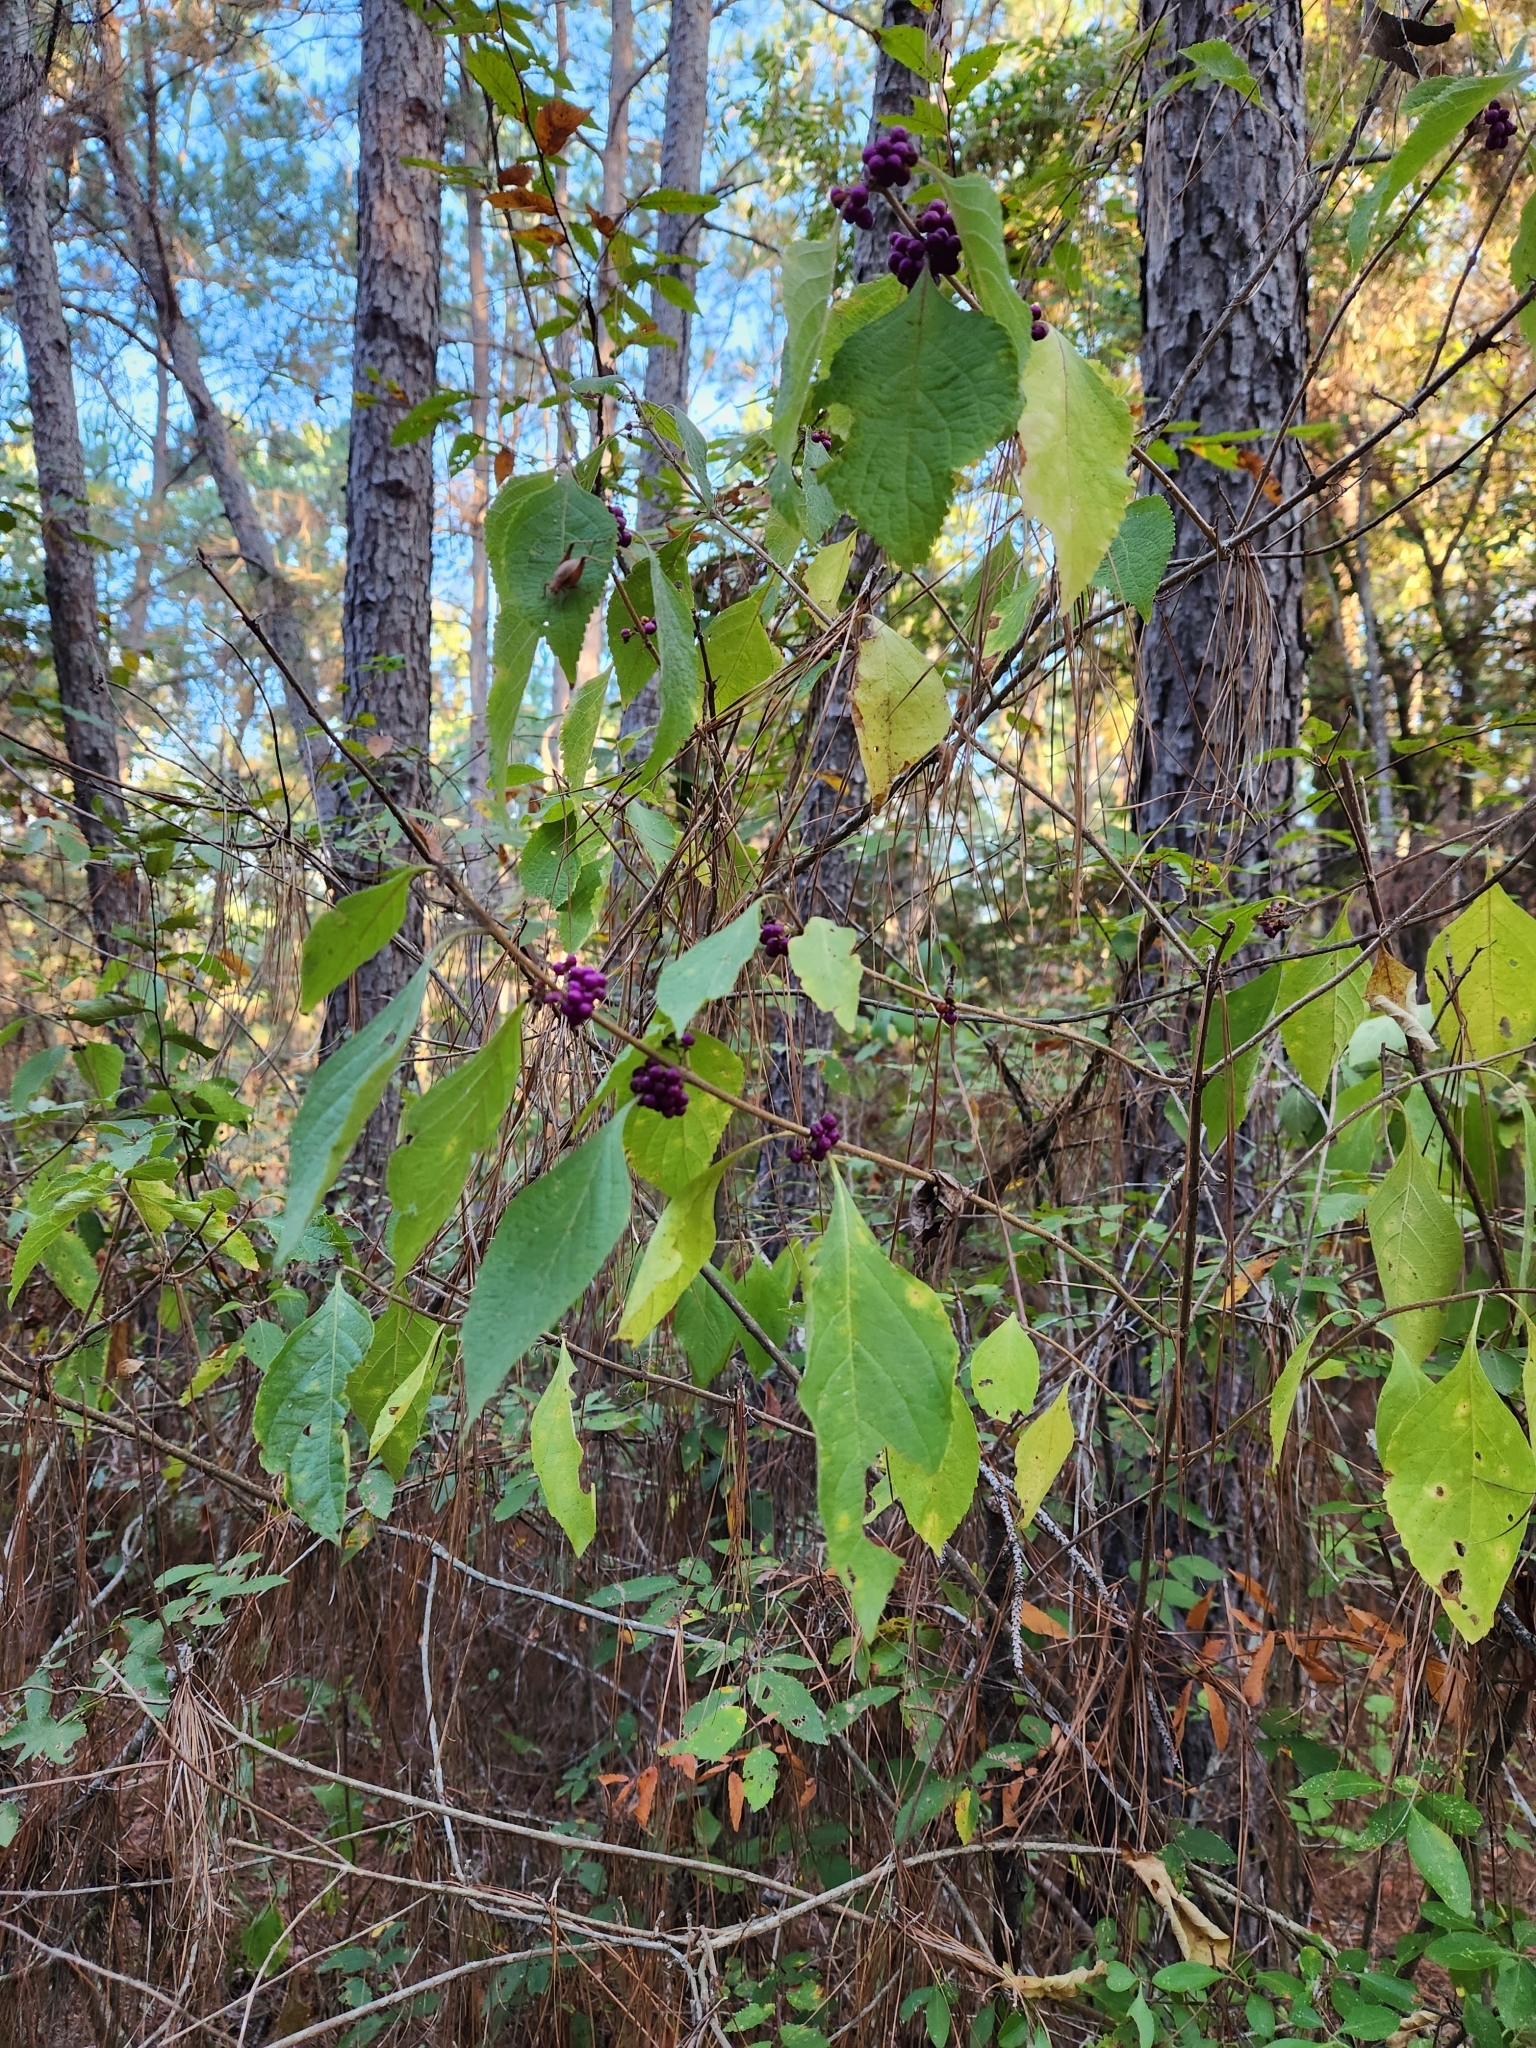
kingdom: Plantae
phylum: Tracheophyta
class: Magnoliopsida
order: Lamiales
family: Lamiaceae
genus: Callicarpa
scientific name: Callicarpa americana
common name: American beautyberry
